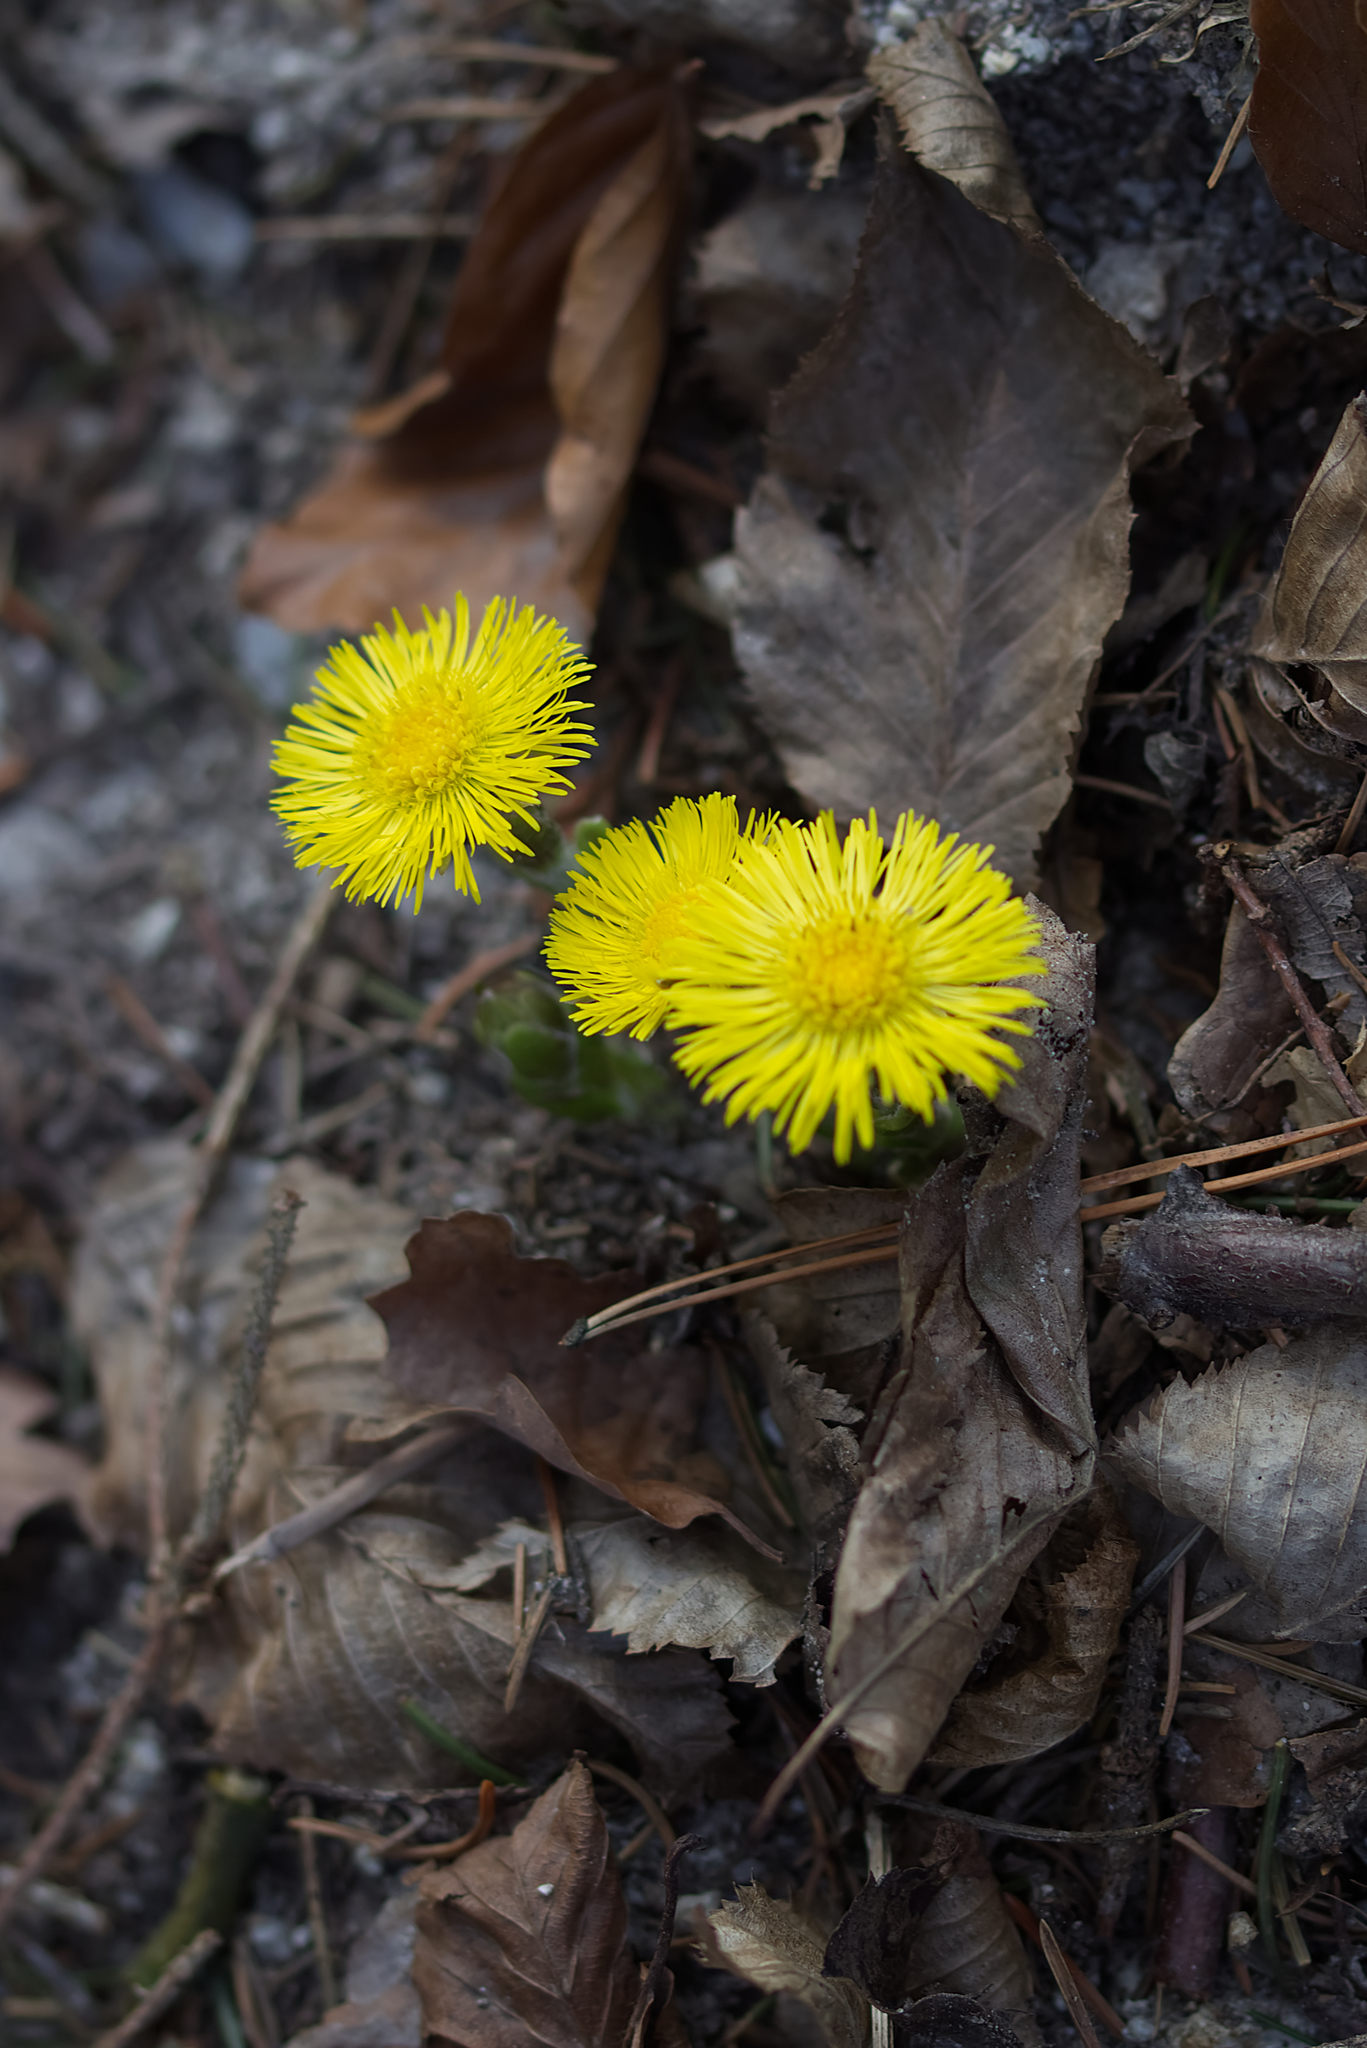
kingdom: Plantae
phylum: Tracheophyta
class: Magnoliopsida
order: Asterales
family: Asteraceae
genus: Tussilago
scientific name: Tussilago farfara
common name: Coltsfoot
